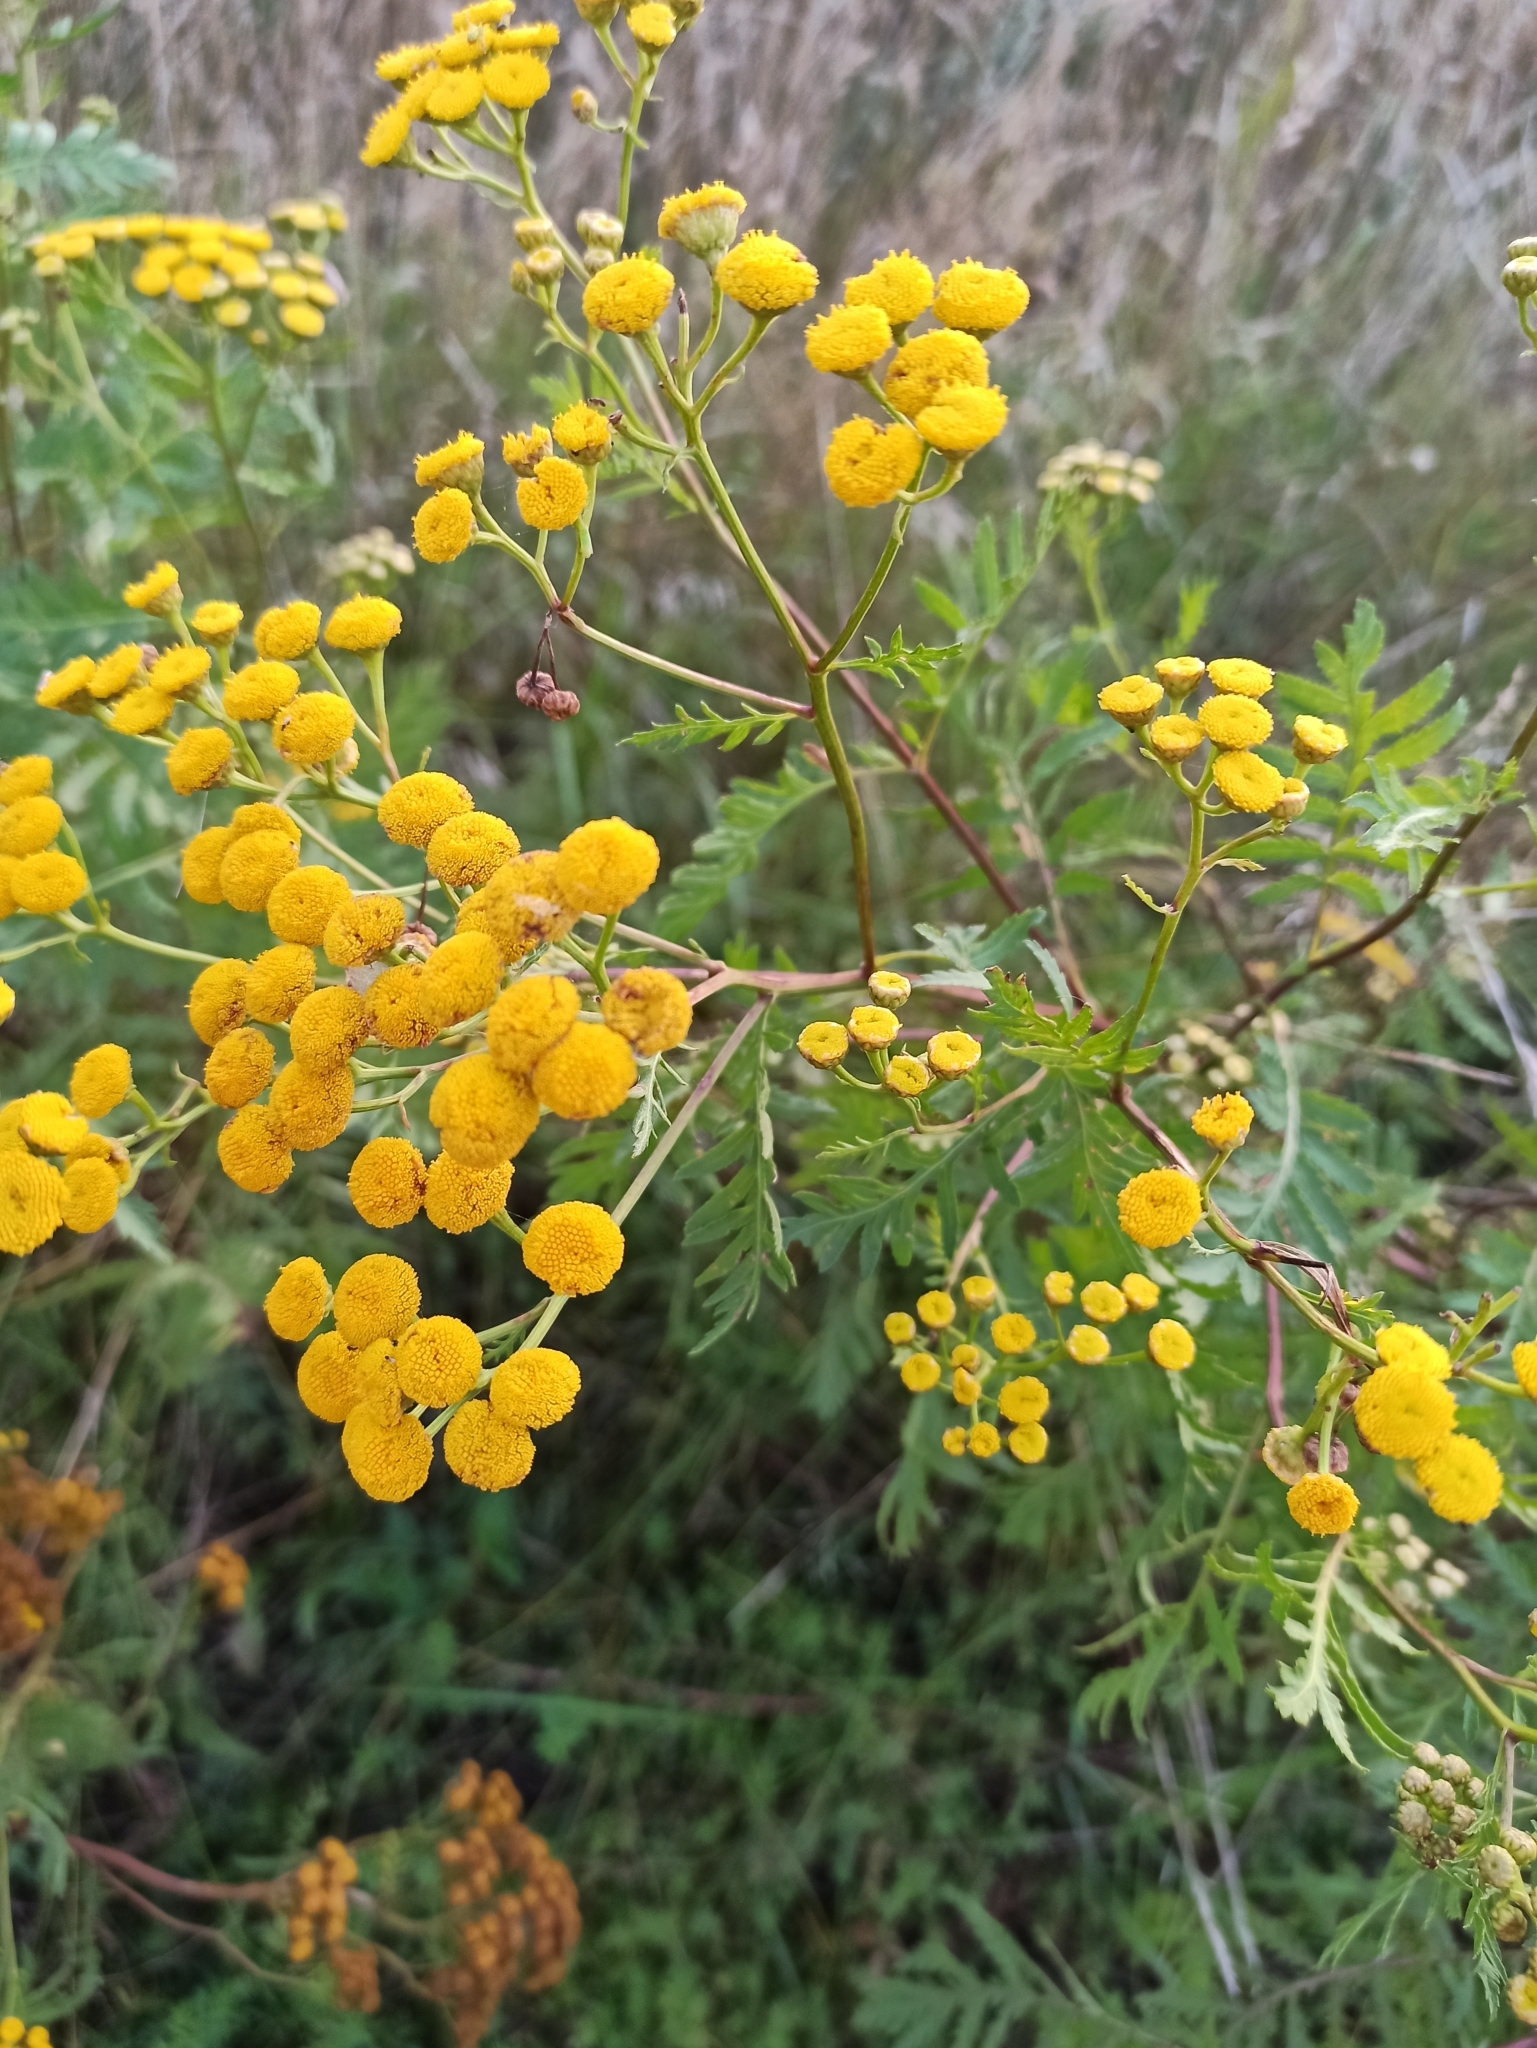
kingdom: Plantae
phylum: Tracheophyta
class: Magnoliopsida
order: Asterales
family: Asteraceae
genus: Tanacetum
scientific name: Tanacetum vulgare
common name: Common tansy
